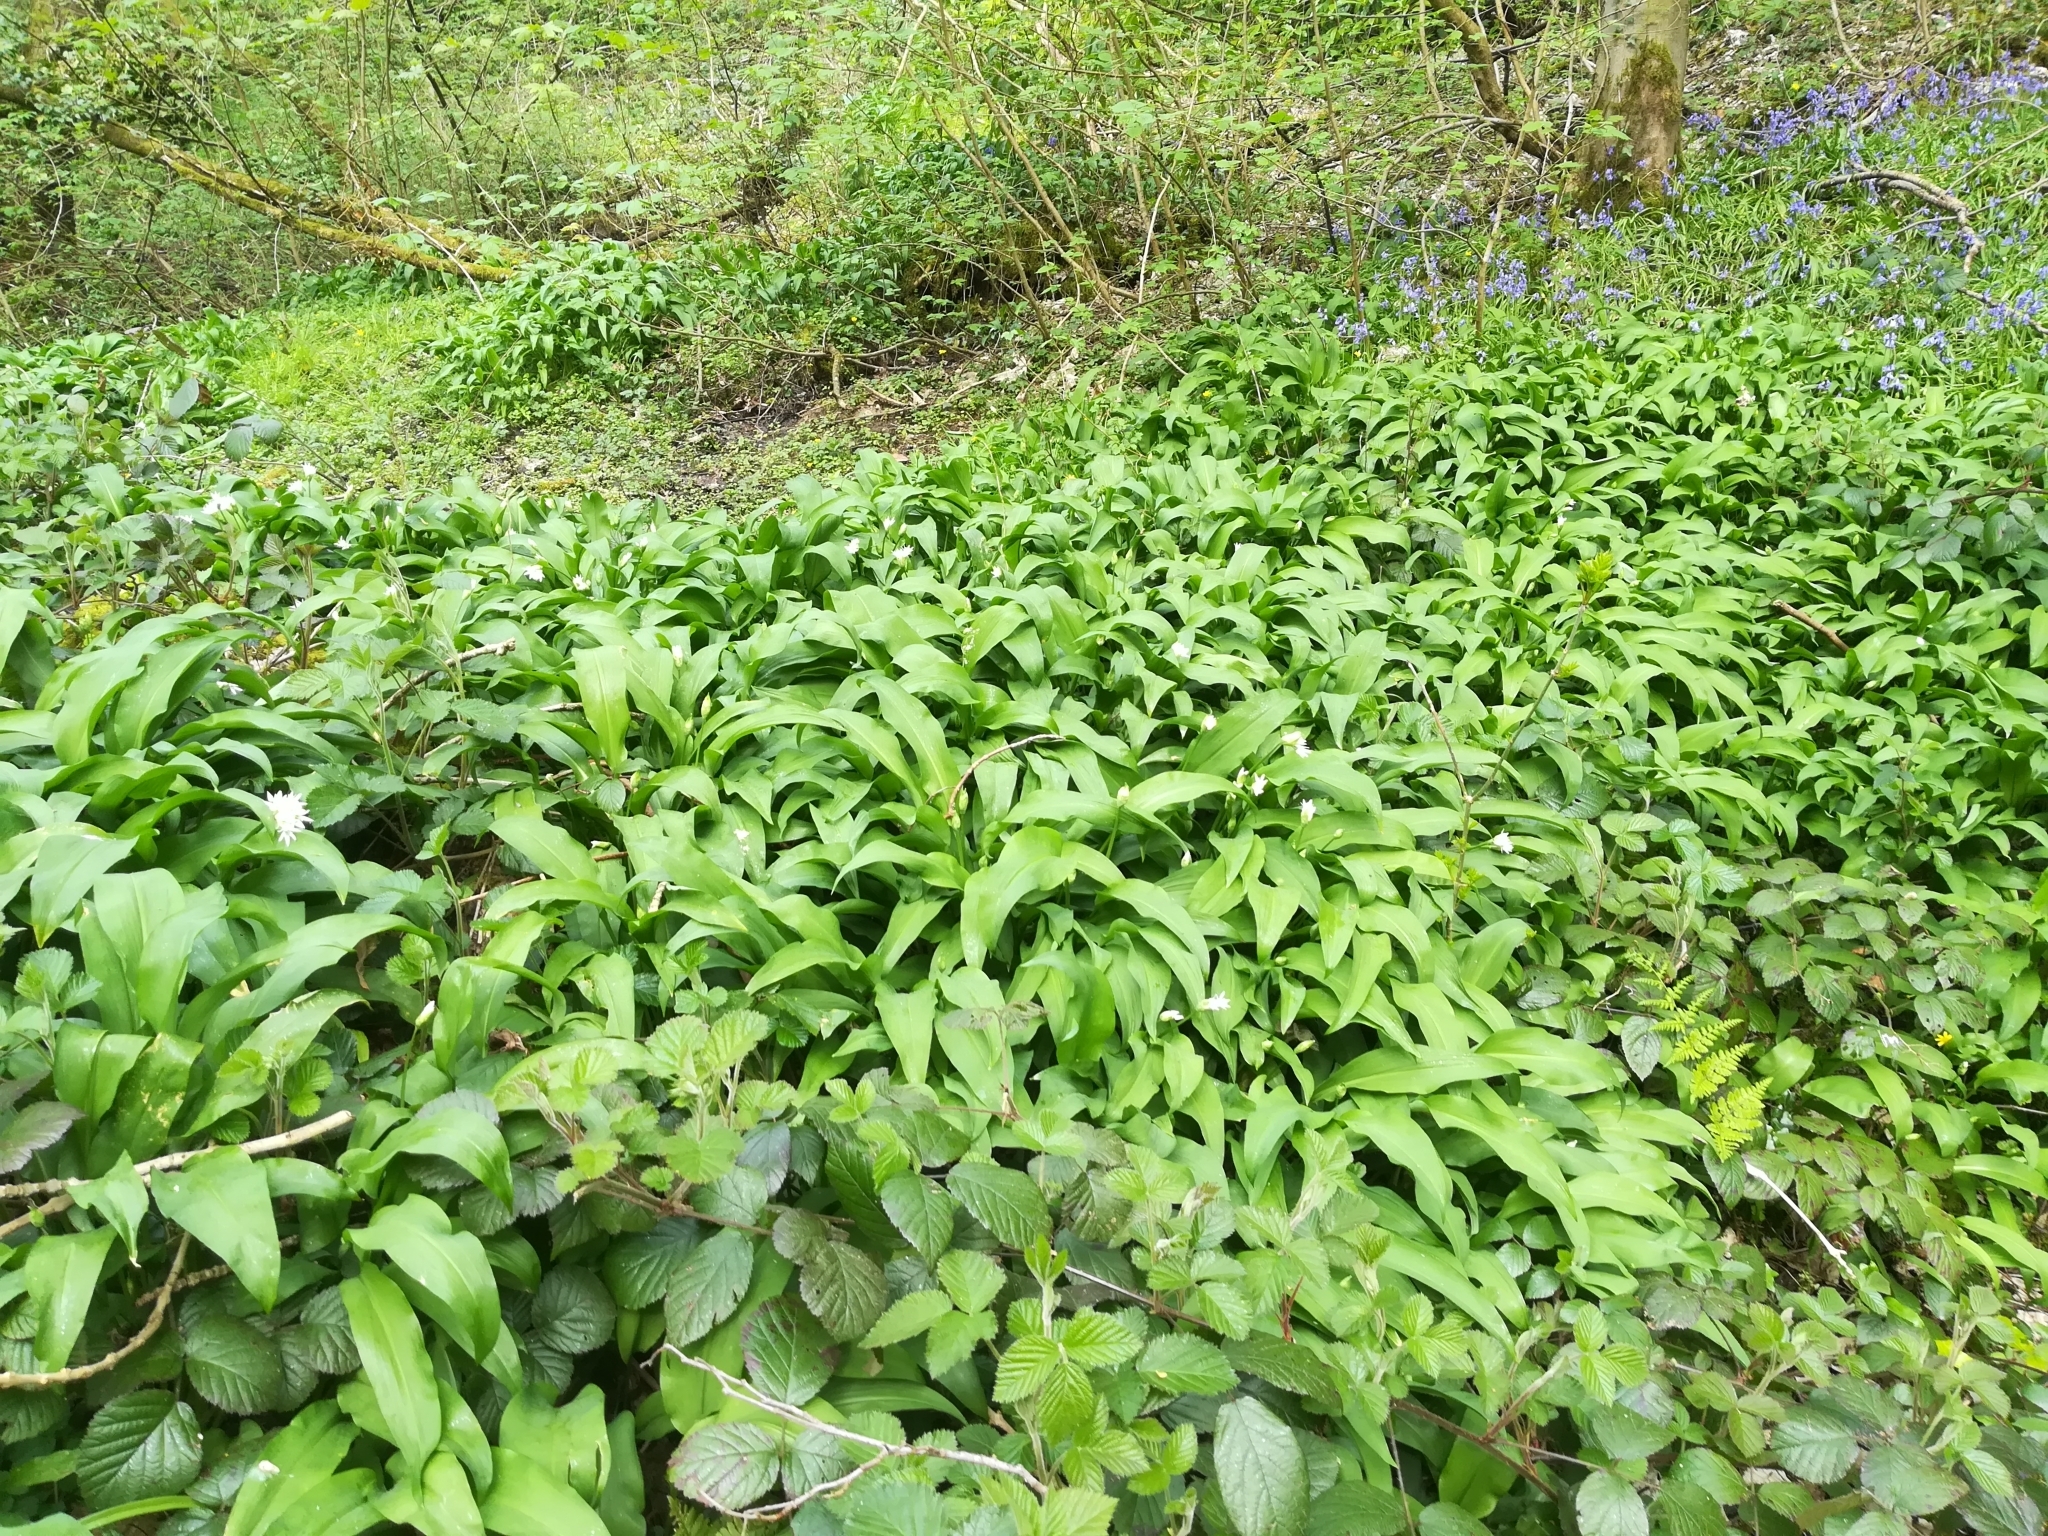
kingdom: Plantae
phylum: Tracheophyta
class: Liliopsida
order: Asparagales
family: Amaryllidaceae
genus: Allium
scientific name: Allium ursinum
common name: Ramsons
